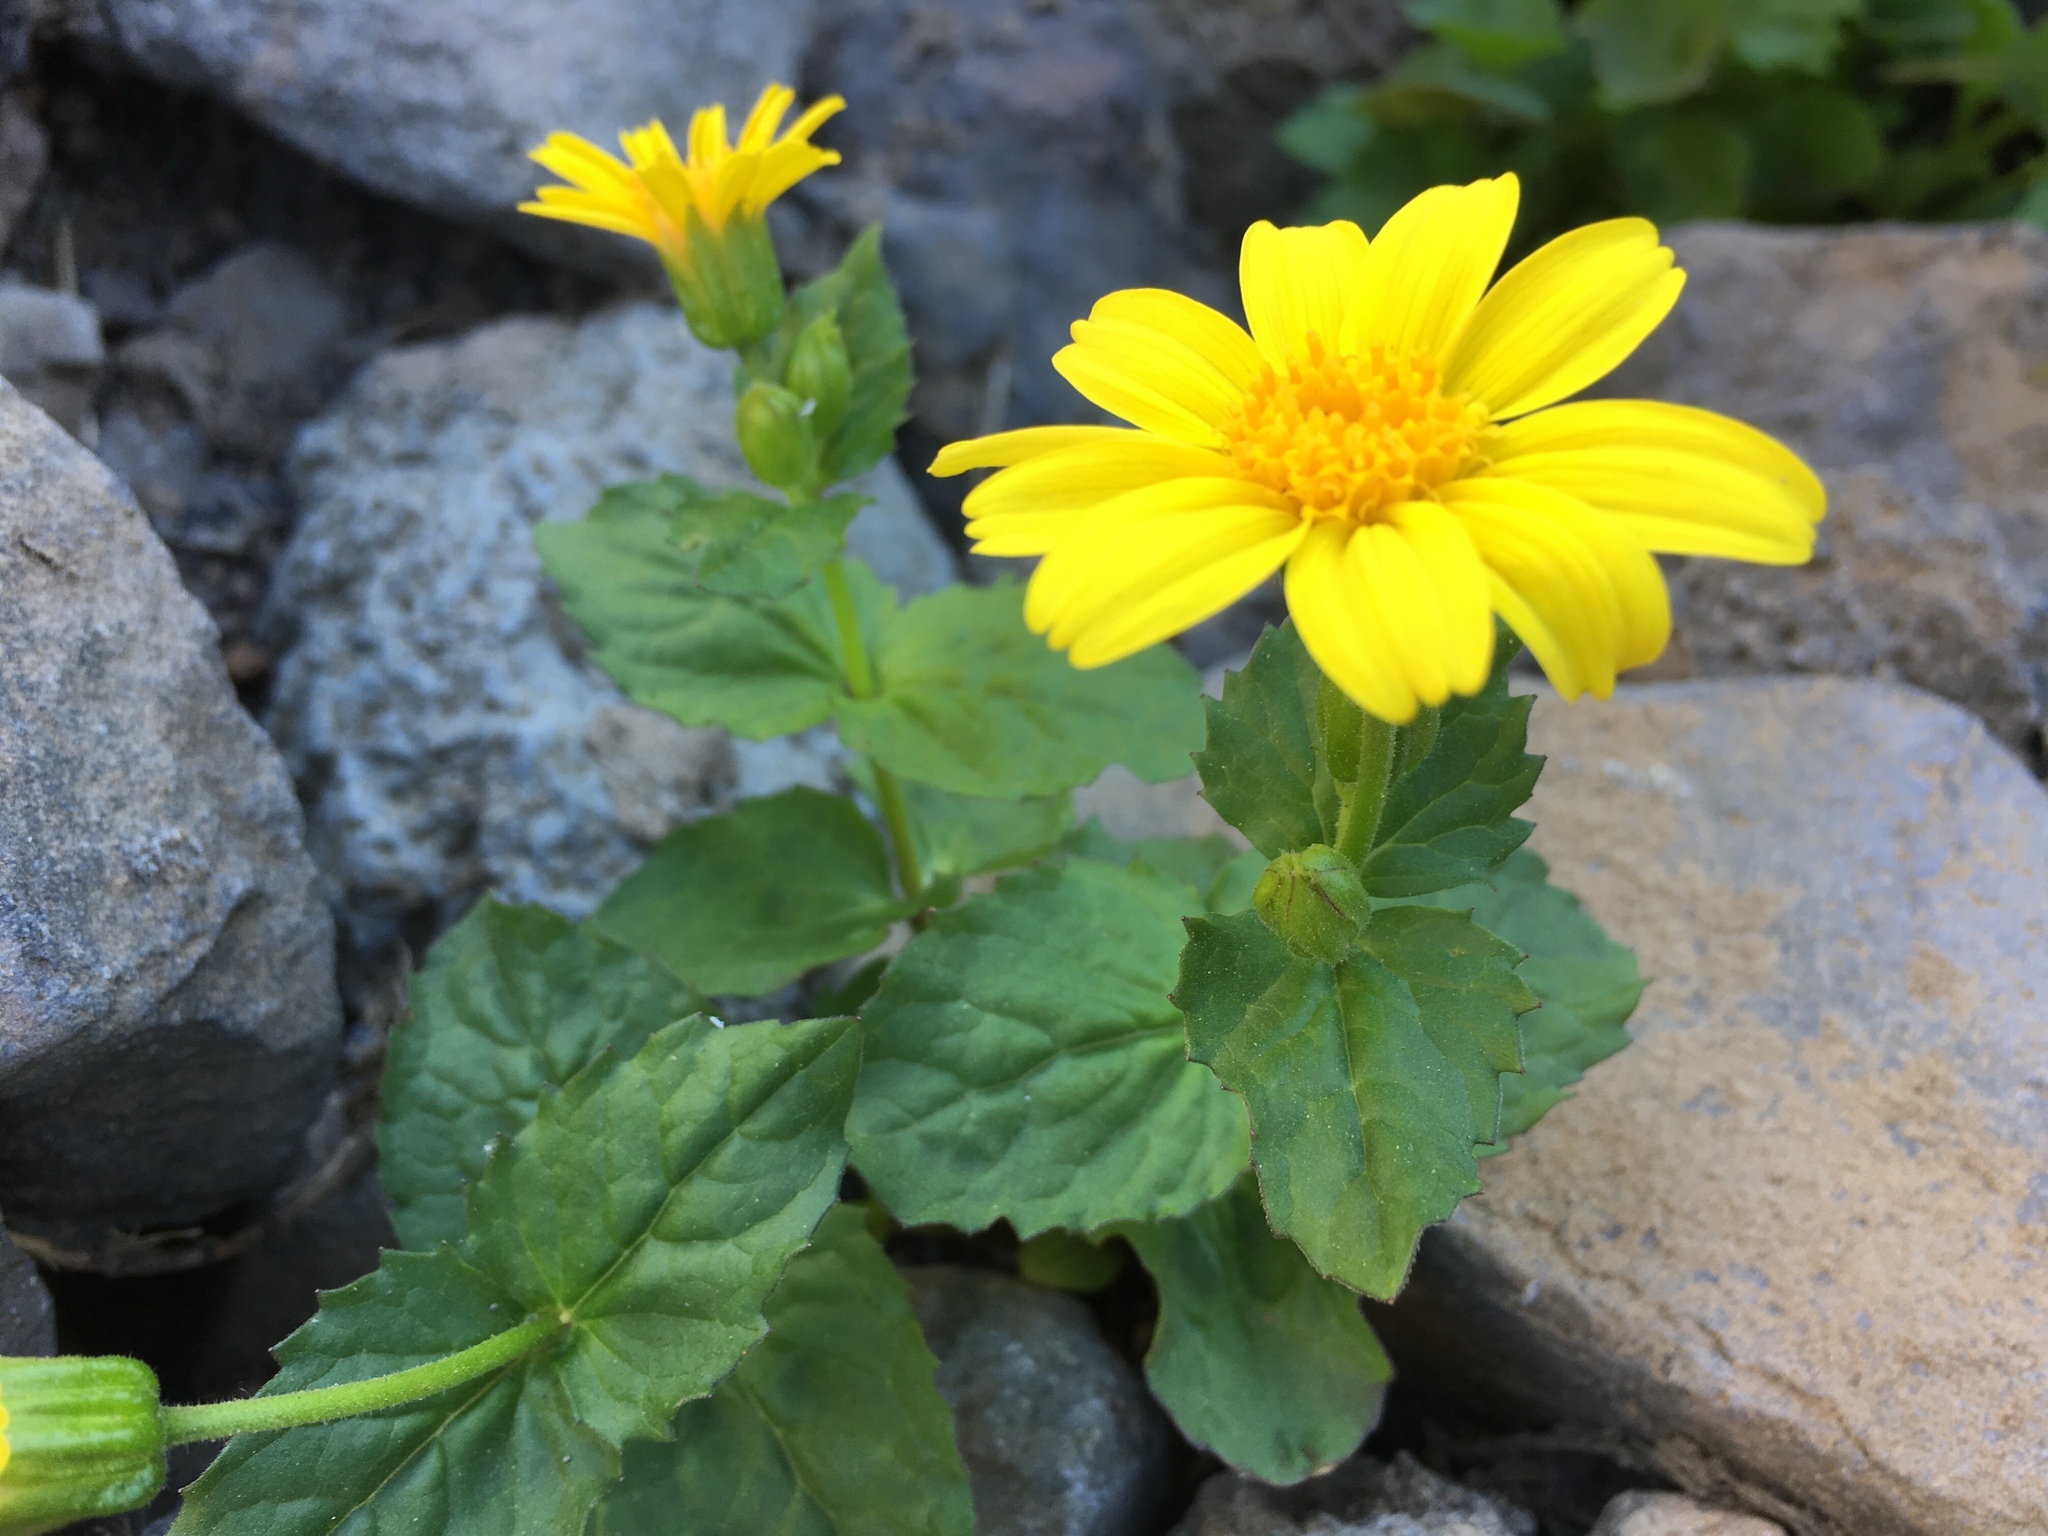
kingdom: Plantae
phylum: Tracheophyta
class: Magnoliopsida
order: Asterales
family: Asteraceae
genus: Arnica
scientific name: Arnica latifolia
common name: Arnica
